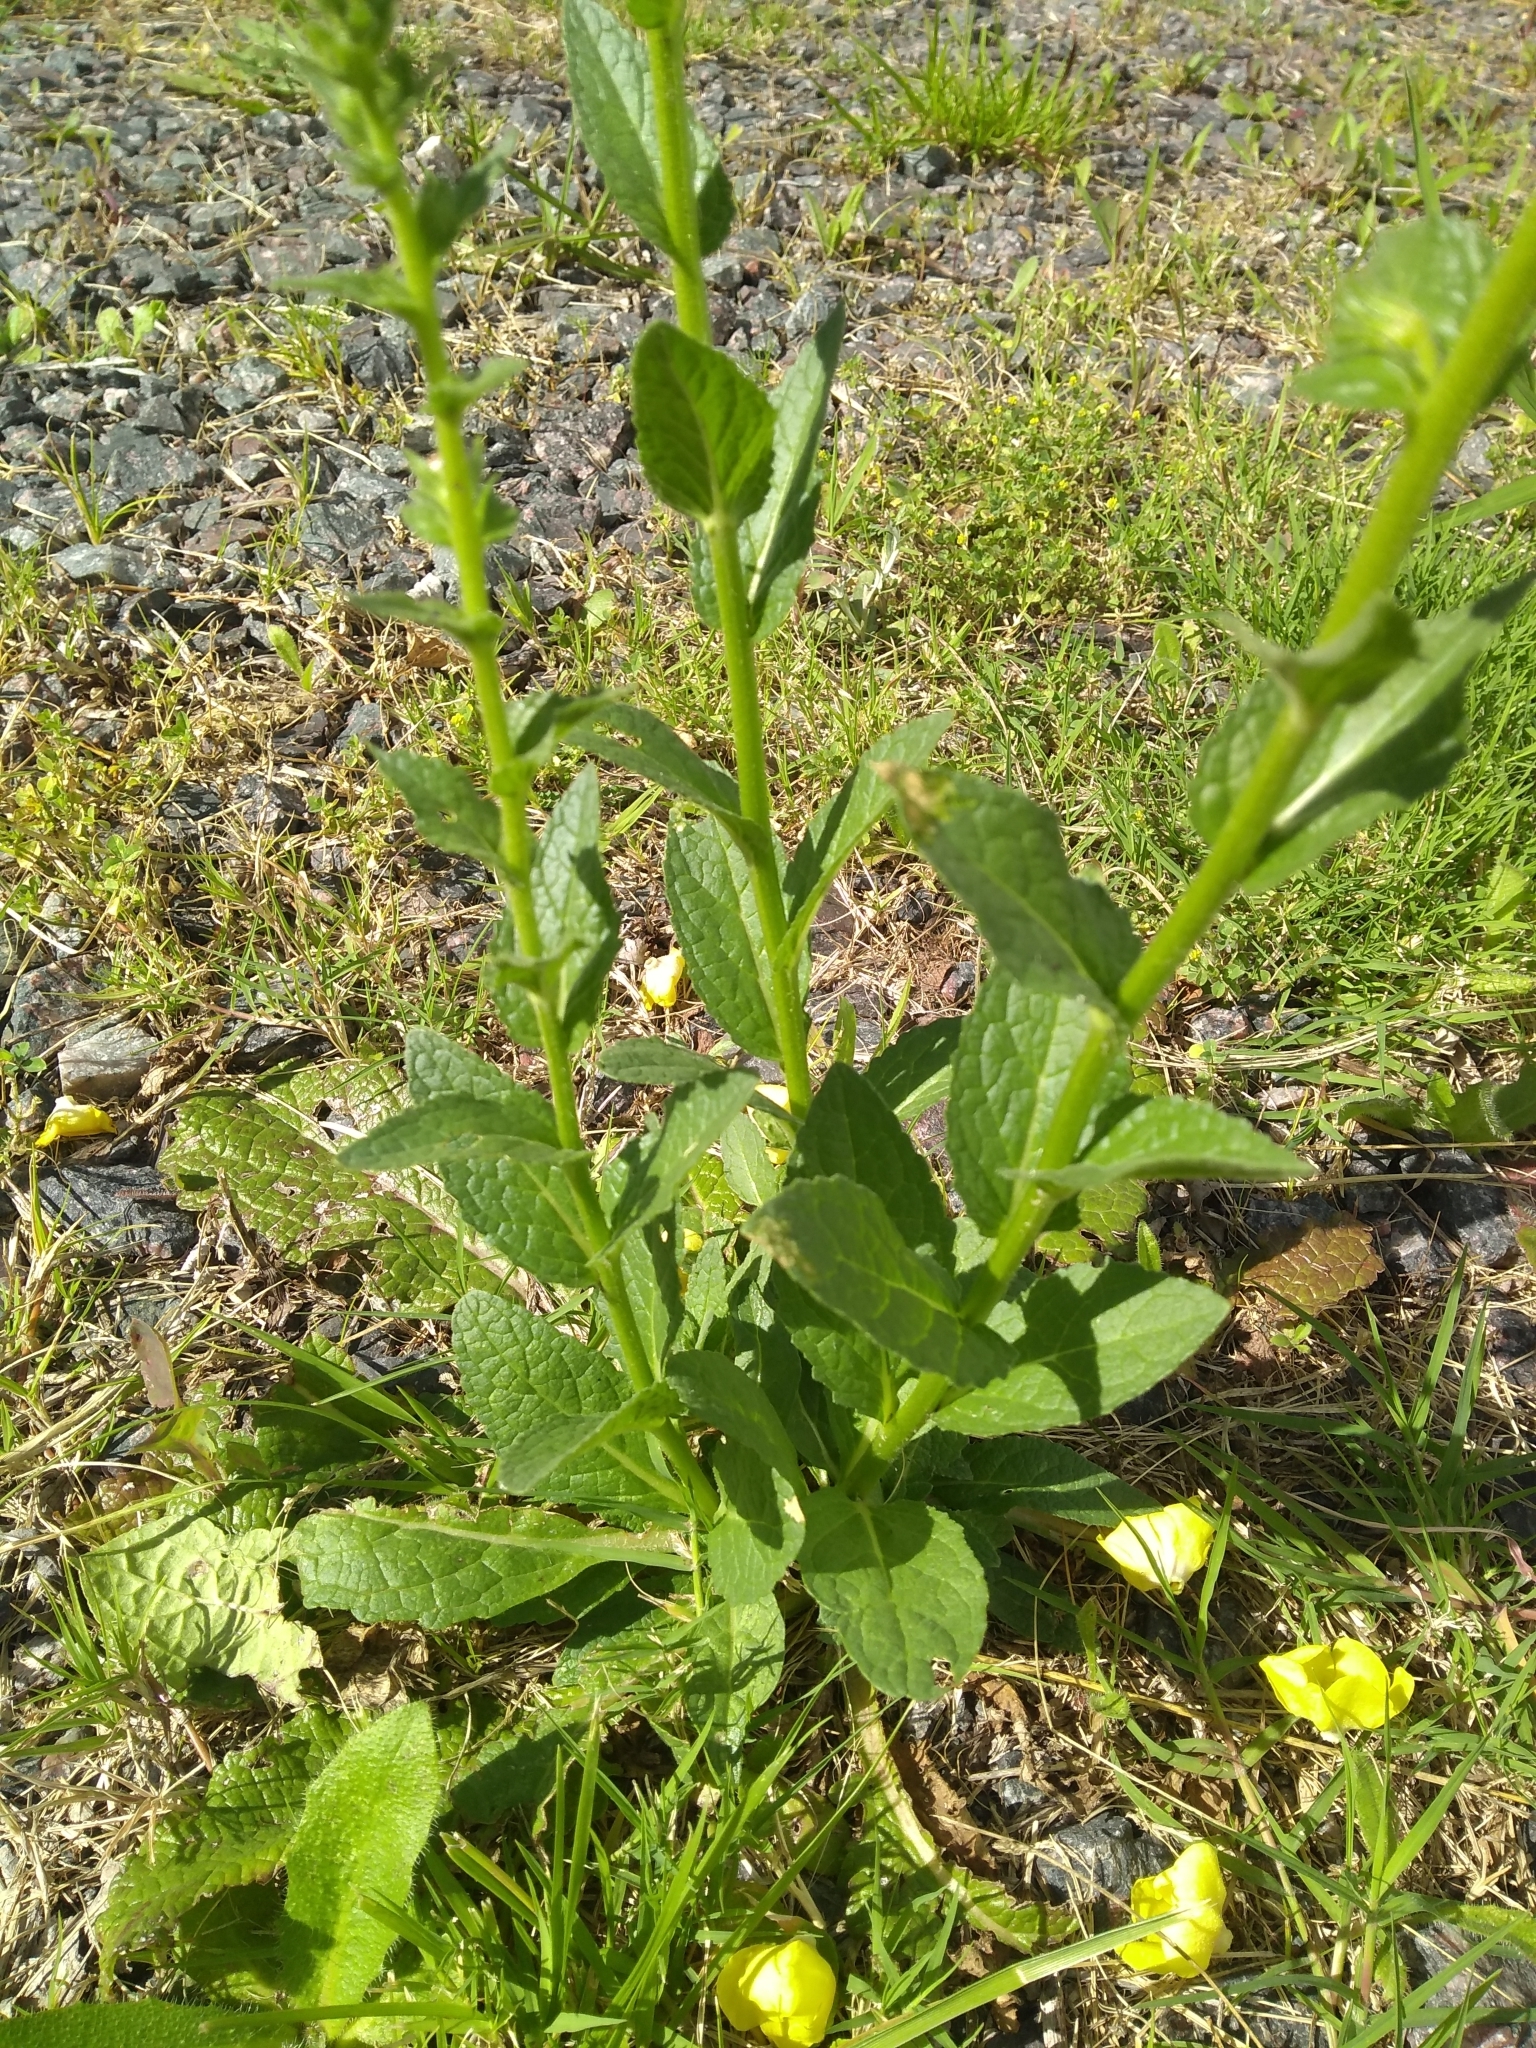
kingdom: Plantae
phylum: Tracheophyta
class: Magnoliopsida
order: Lamiales
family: Scrophulariaceae
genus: Verbascum
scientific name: Verbascum virgatum
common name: Twiggy mullein
